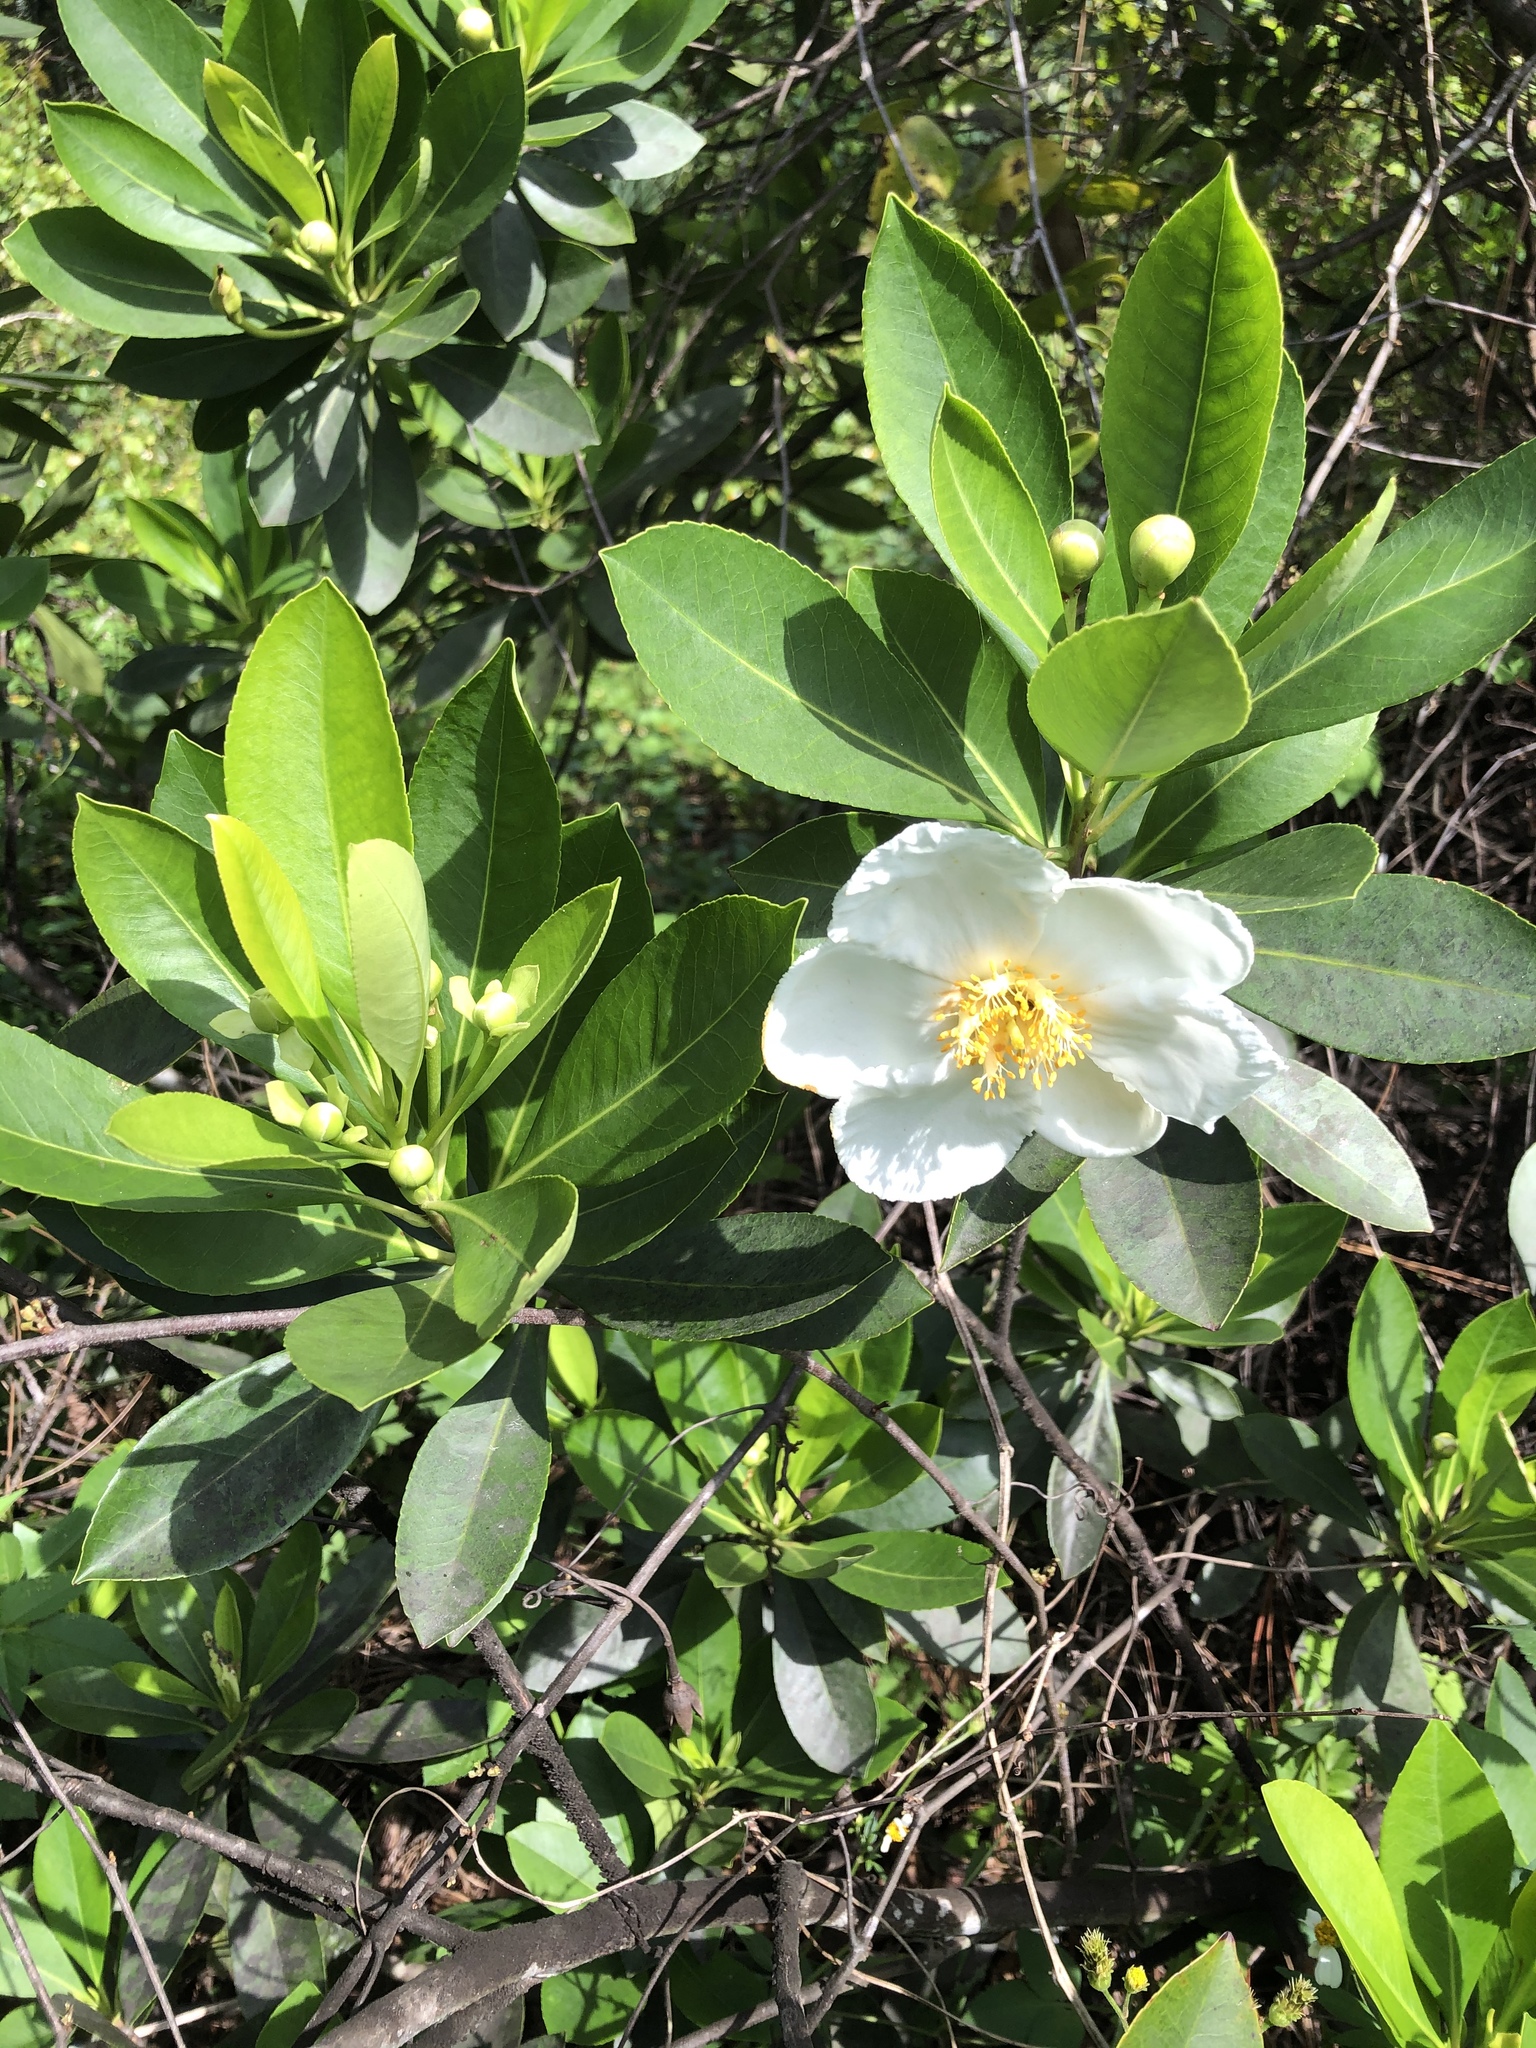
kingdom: Plantae
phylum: Tracheophyta
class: Magnoliopsida
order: Ericales
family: Theaceae
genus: Gordonia
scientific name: Gordonia lasianthus
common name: Loblolly bay
